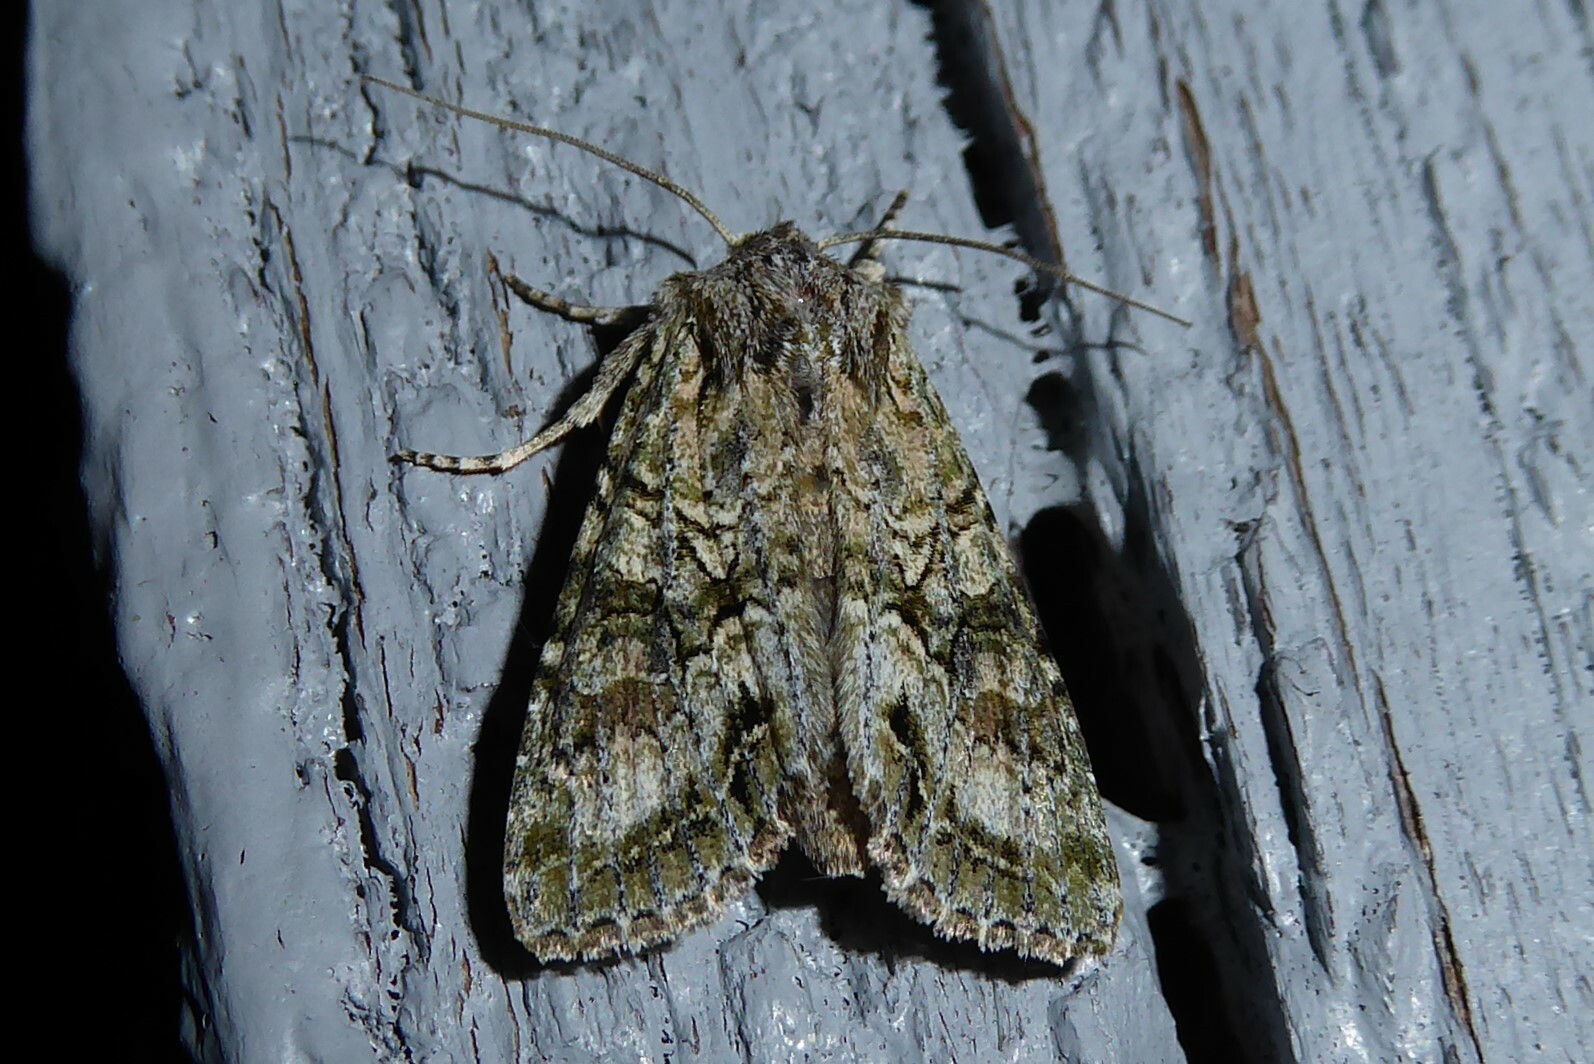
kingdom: Animalia
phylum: Arthropoda
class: Insecta
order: Lepidoptera
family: Noctuidae
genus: Ichneutica
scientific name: Ichneutica mutans
